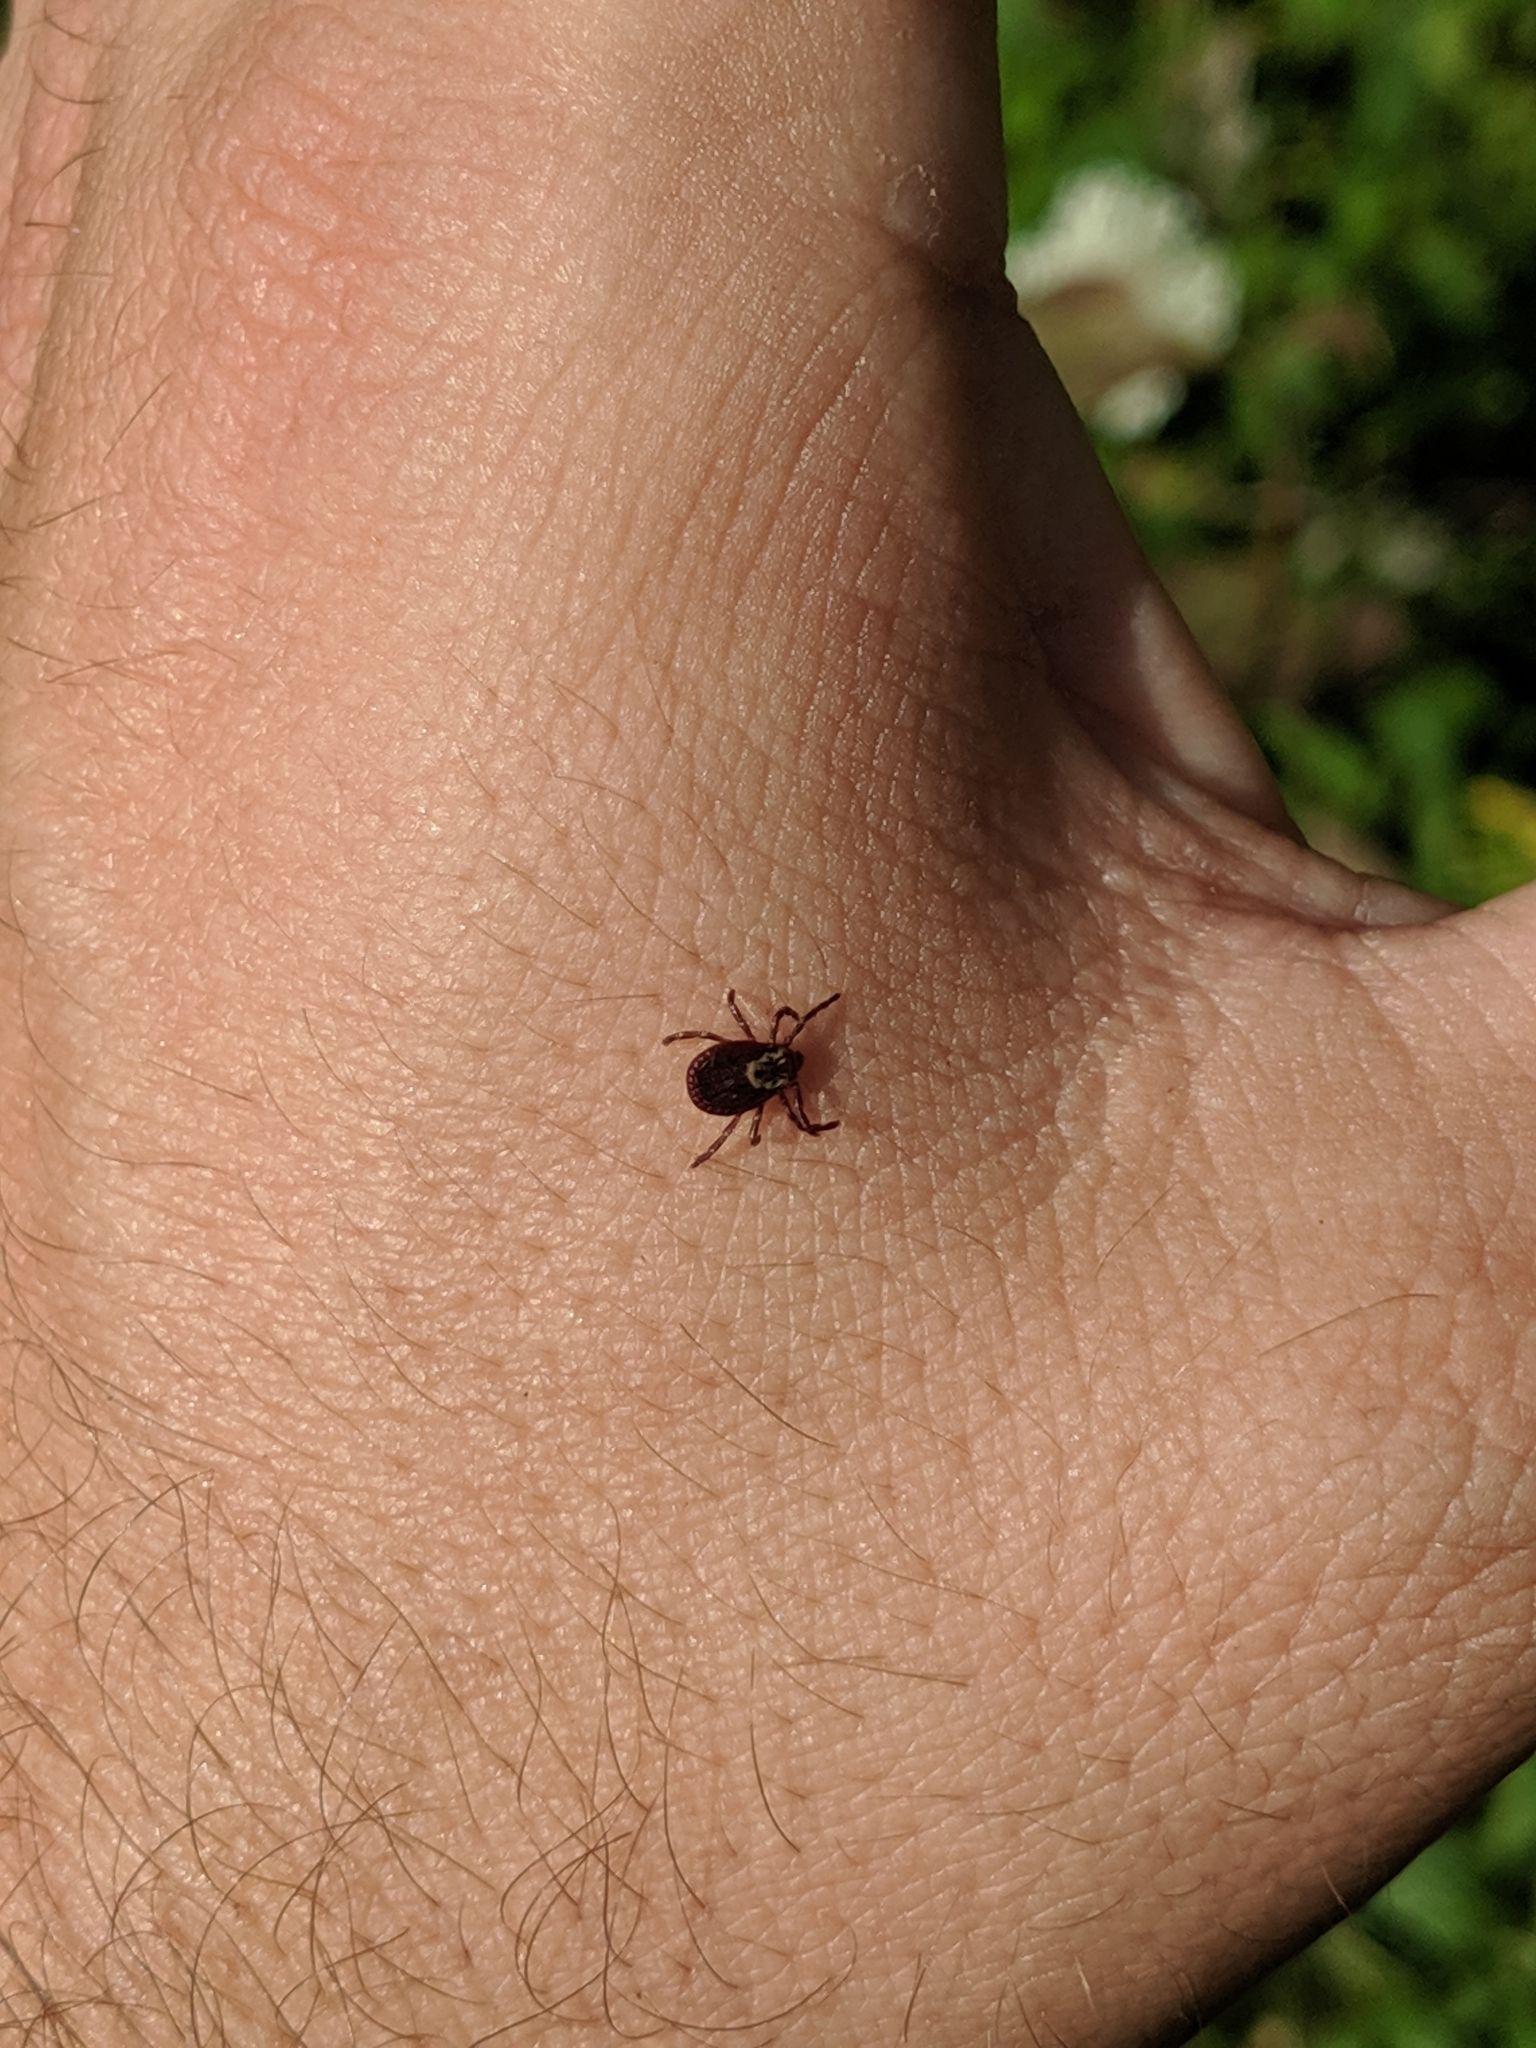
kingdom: Animalia
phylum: Arthropoda
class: Arachnida
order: Ixodida
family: Ixodidae
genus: Dermacentor
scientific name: Dermacentor variabilis
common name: American dog tick
